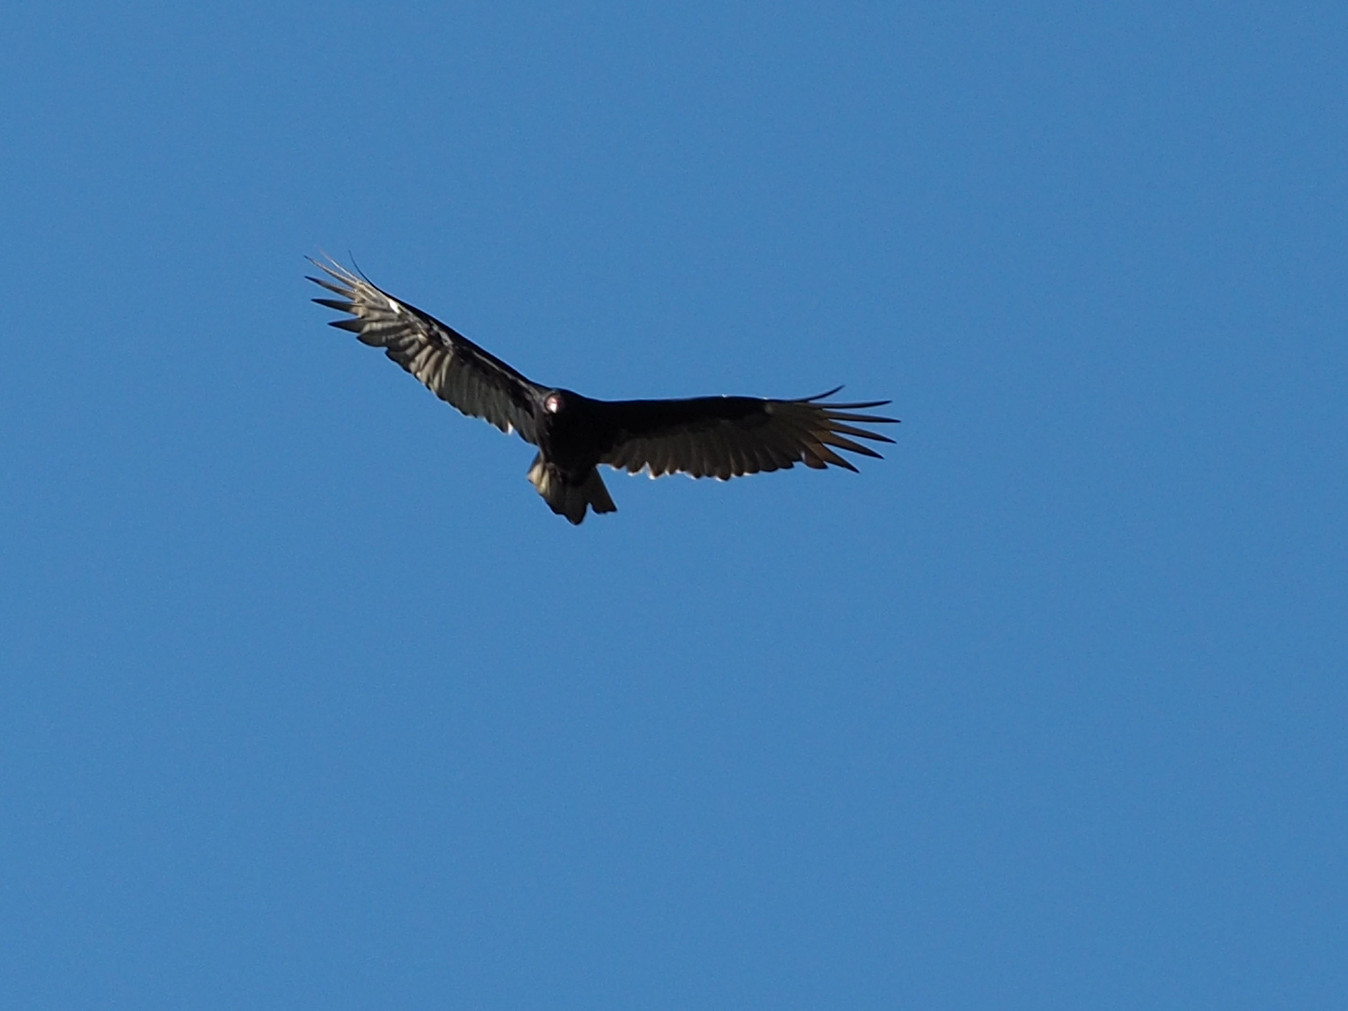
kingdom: Animalia
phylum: Chordata
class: Aves
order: Accipitriformes
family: Cathartidae
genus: Cathartes
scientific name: Cathartes aura
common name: Turkey vulture
